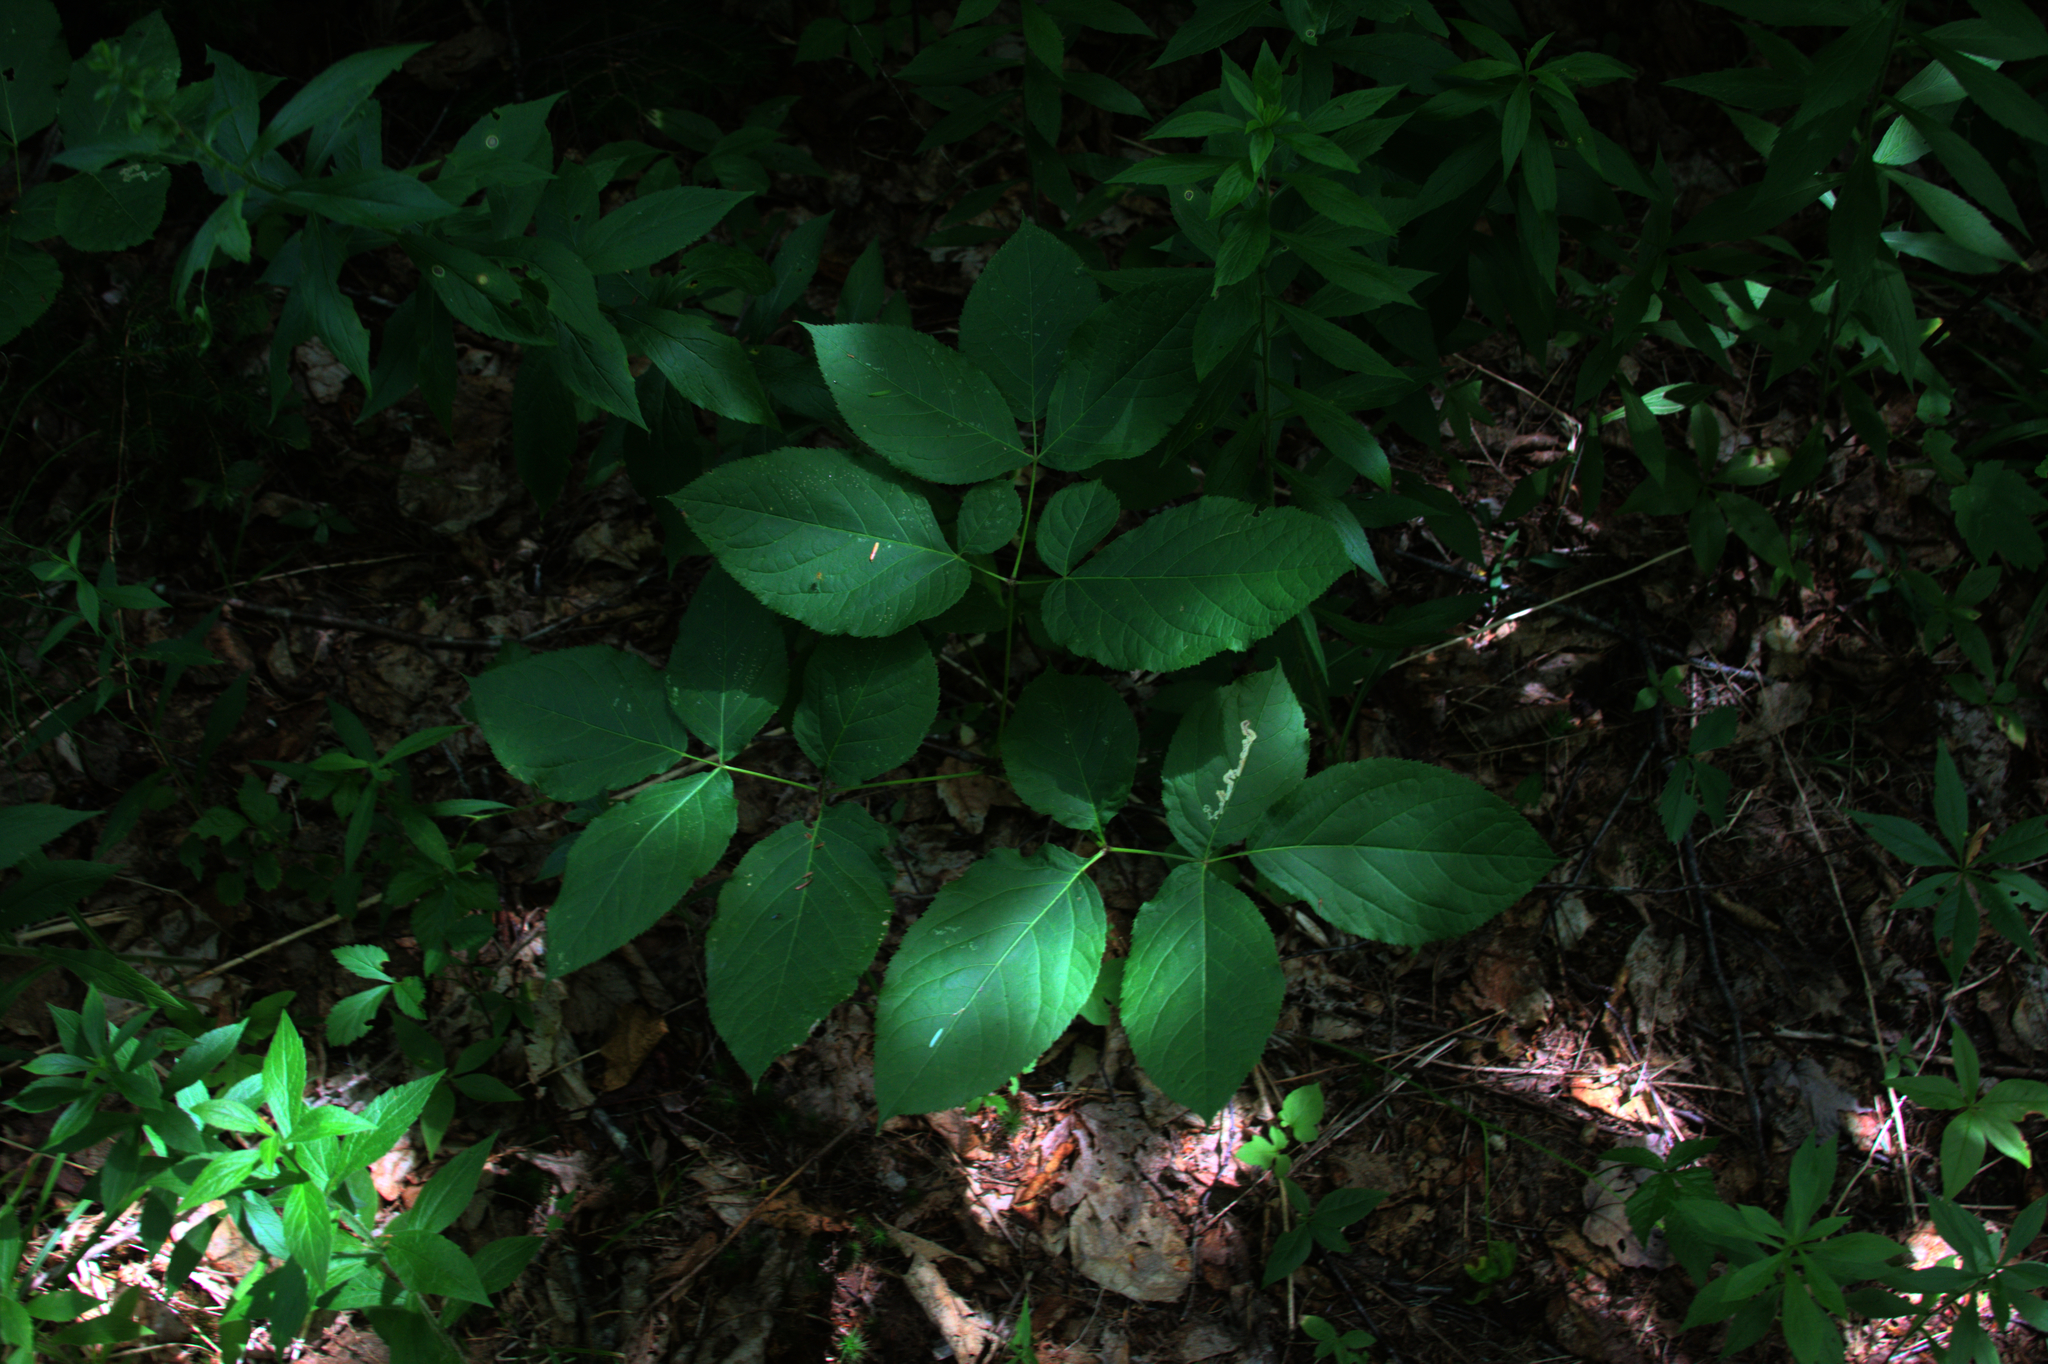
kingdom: Plantae
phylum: Tracheophyta
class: Magnoliopsida
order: Apiales
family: Araliaceae
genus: Aralia
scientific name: Aralia nudicaulis
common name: Wild sarsaparilla
